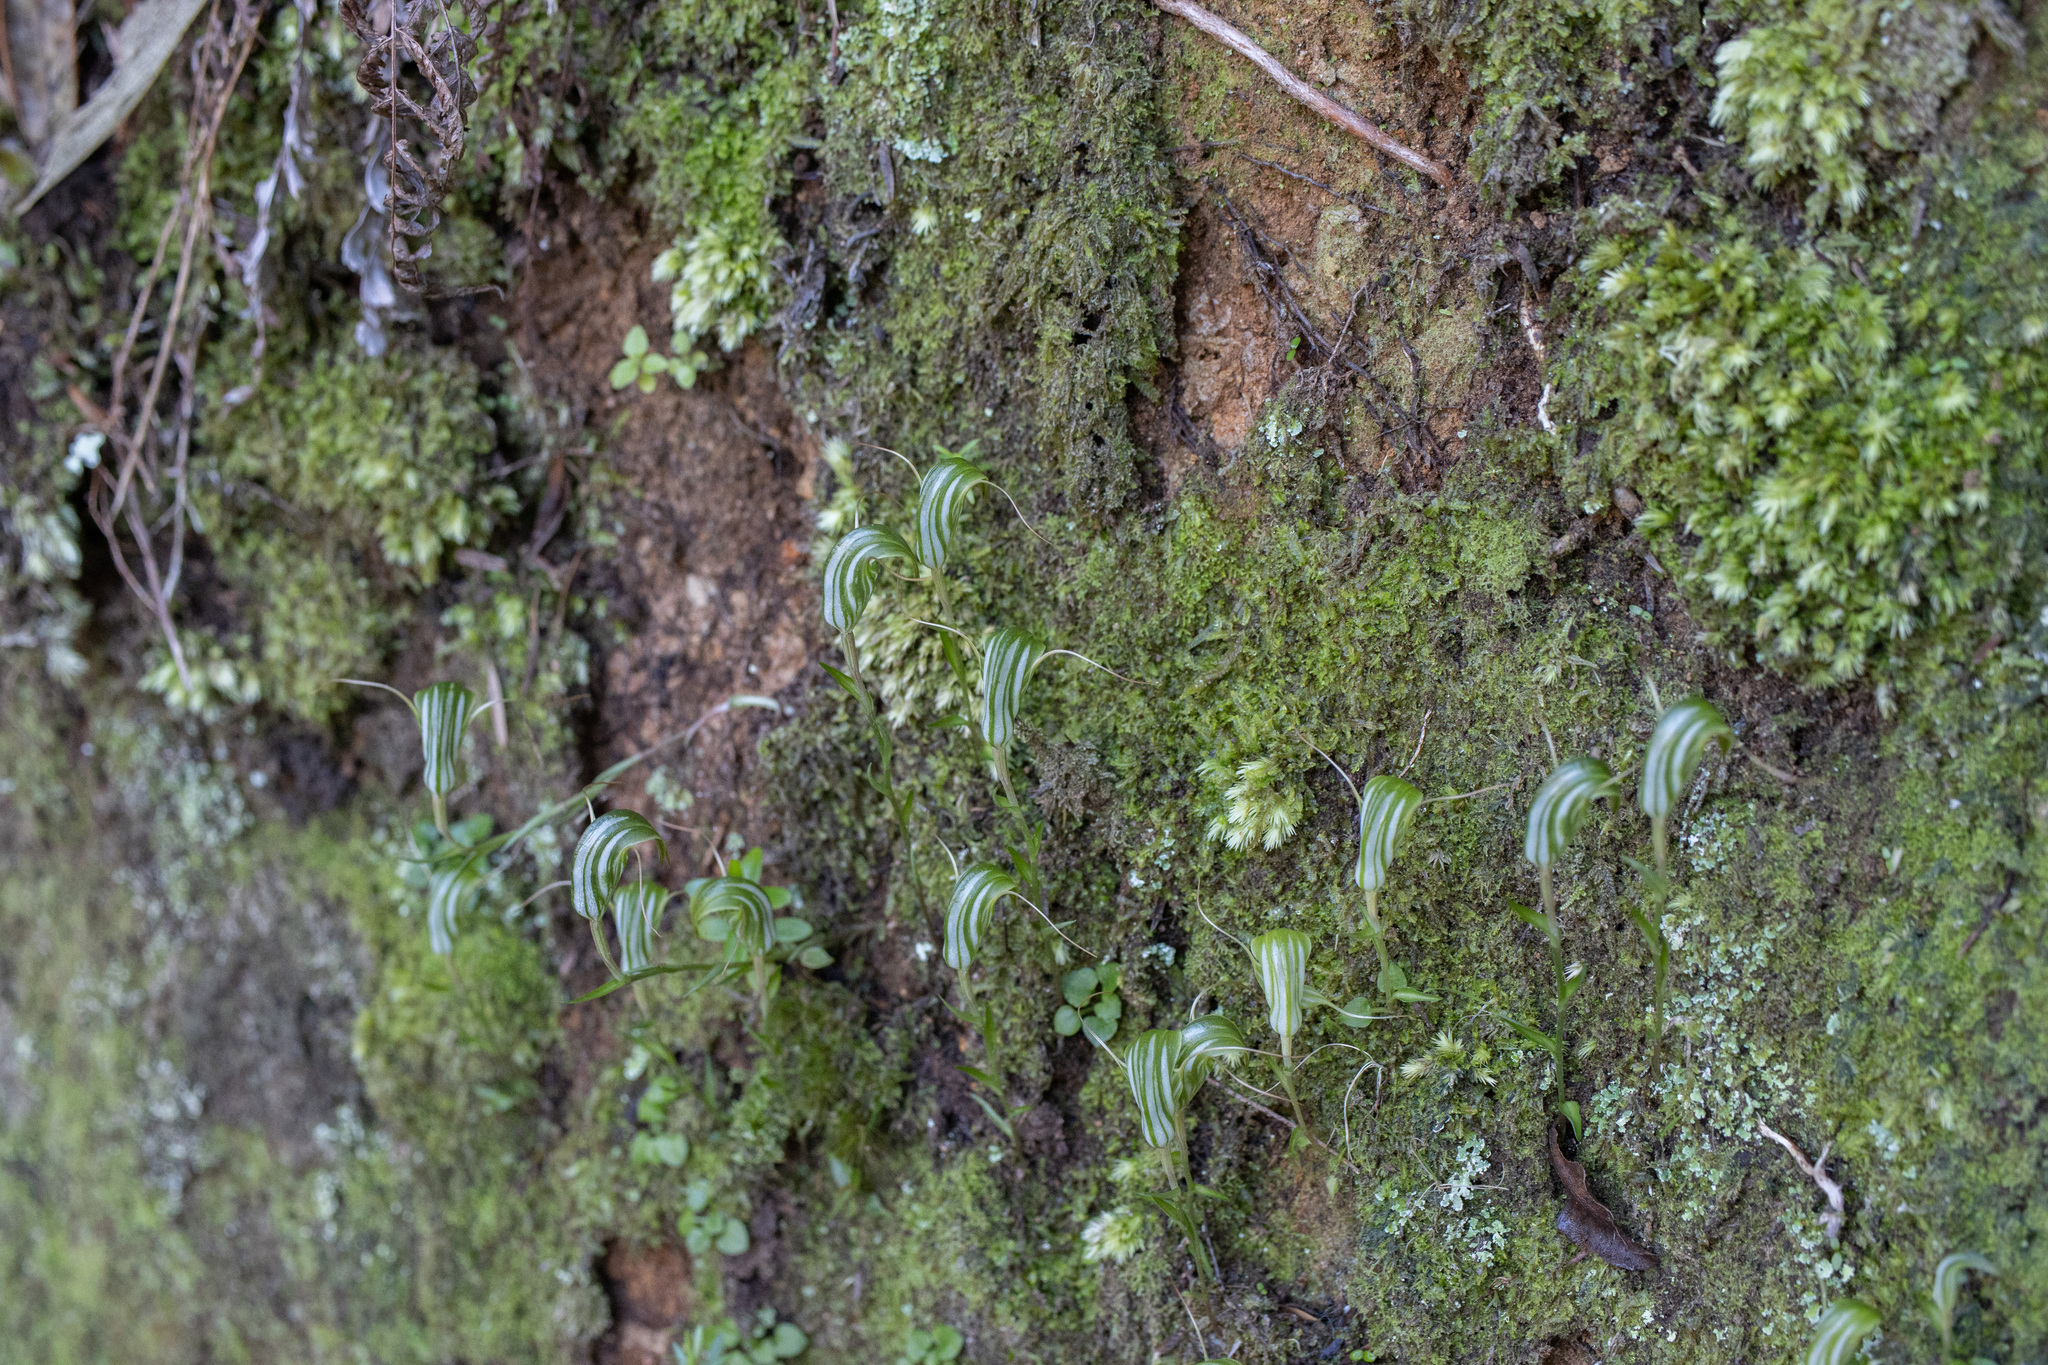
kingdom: Plantae
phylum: Tracheophyta
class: Liliopsida
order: Asparagales
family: Orchidaceae
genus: Pterostylis
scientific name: Pterostylis alobula
